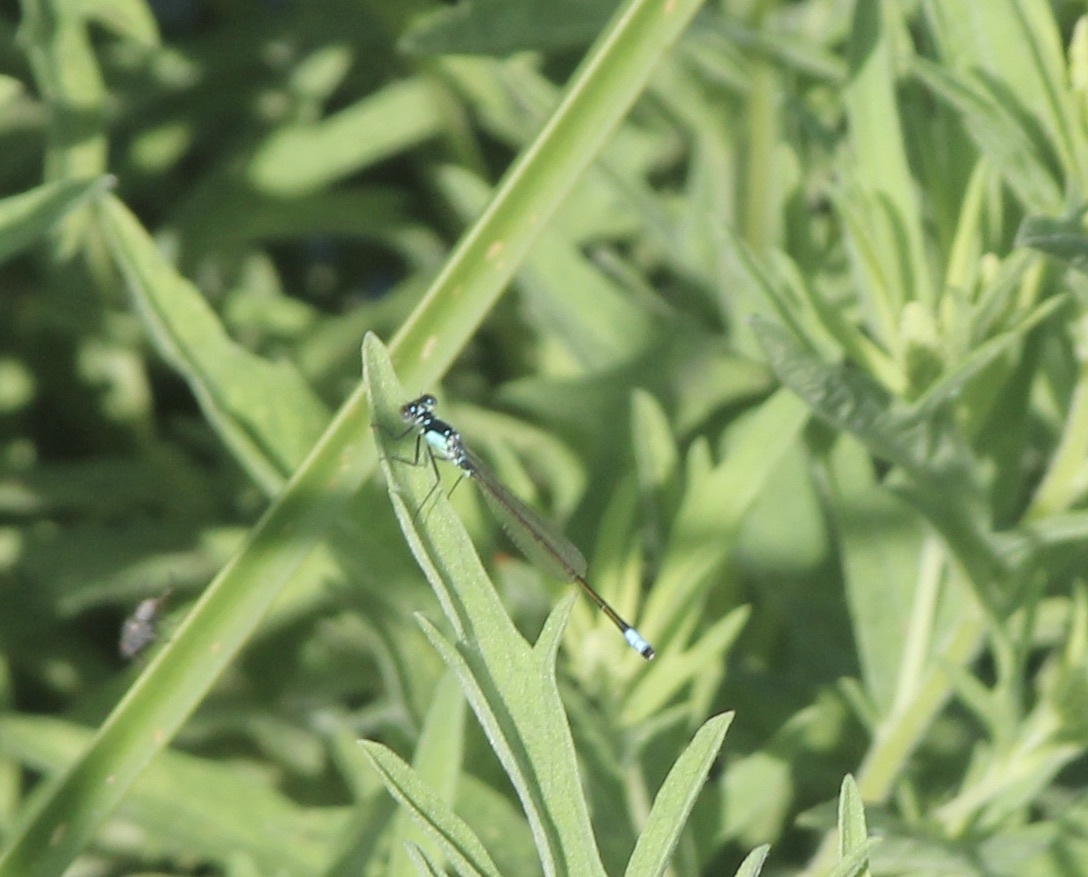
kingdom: Animalia
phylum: Arthropoda
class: Insecta
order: Odonata
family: Coenagrionidae
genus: Ischnura
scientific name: Ischnura cervula
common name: Pacific forktail
